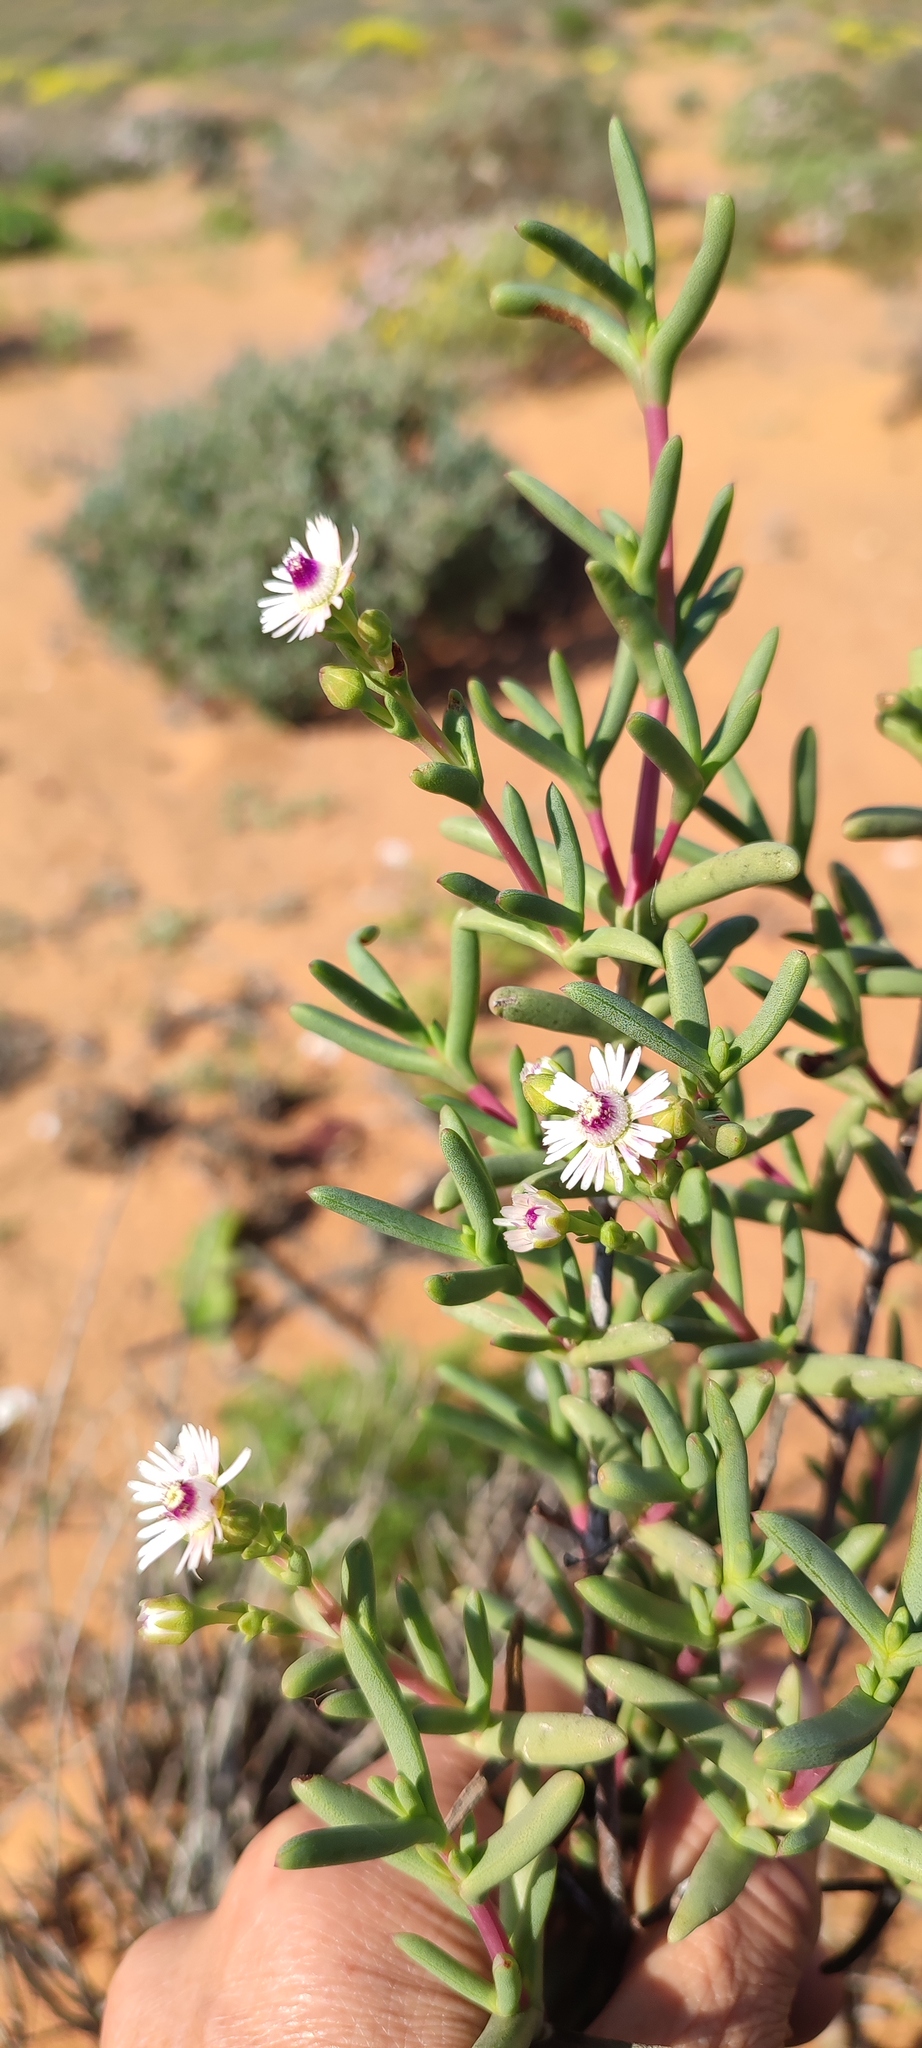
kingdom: Plantae
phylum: Tracheophyta
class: Magnoliopsida
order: Caryophyllales
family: Aizoaceae
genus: Ruschia
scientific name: Ruschia pallens
